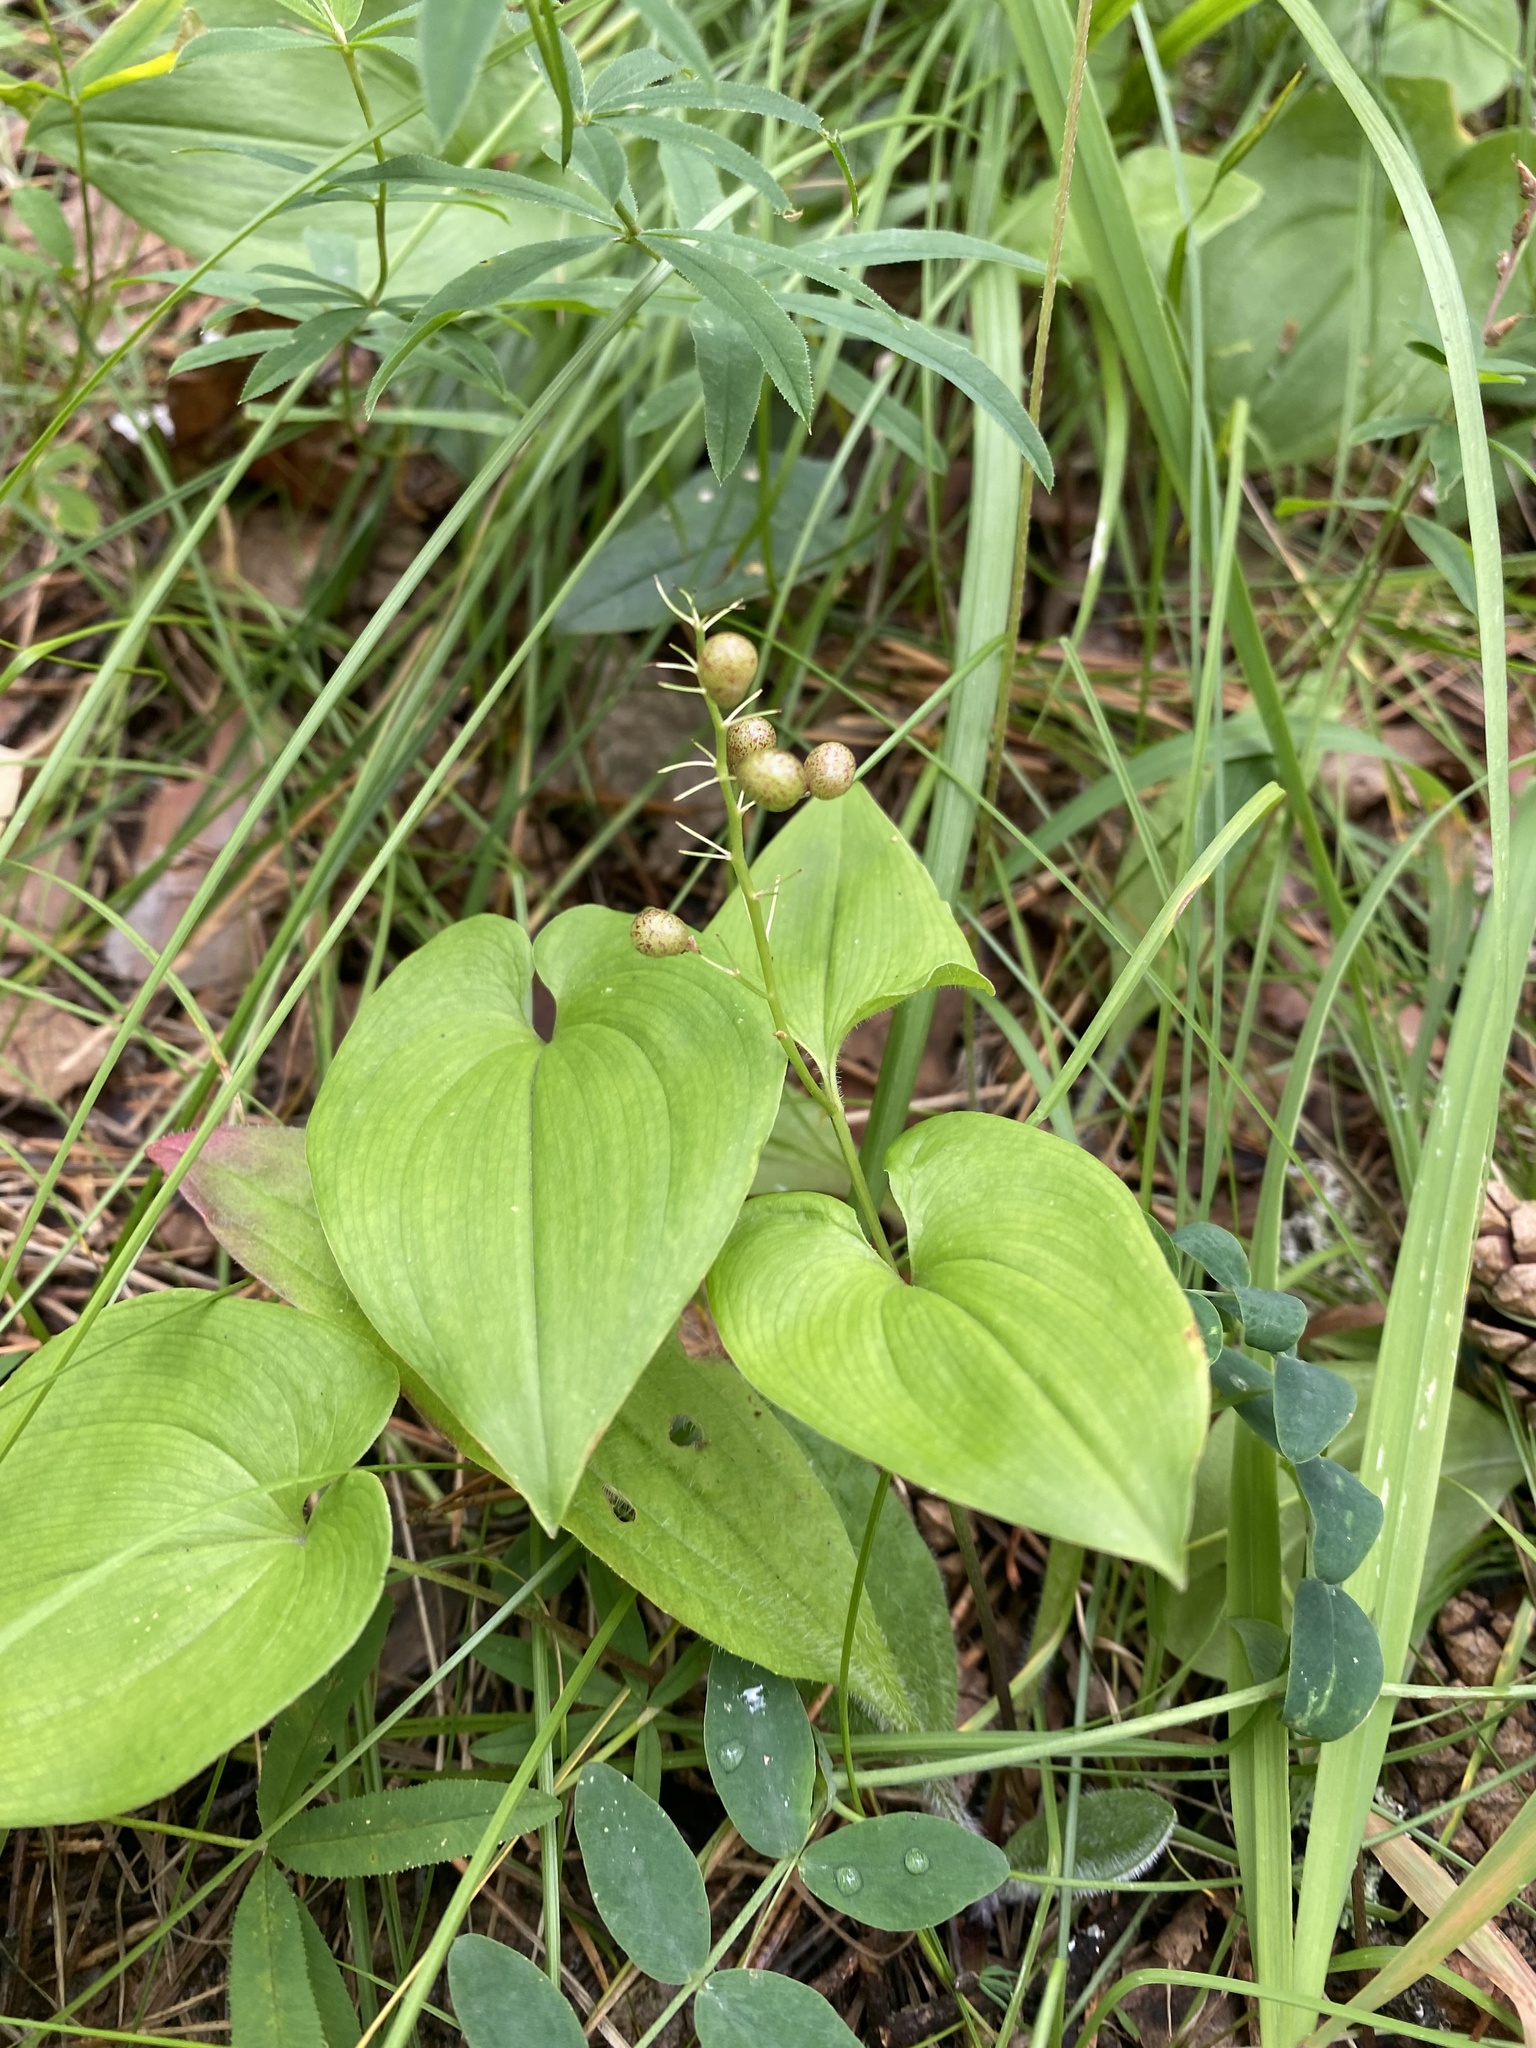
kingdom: Plantae
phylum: Tracheophyta
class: Liliopsida
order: Asparagales
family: Asparagaceae
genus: Maianthemum
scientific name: Maianthemum bifolium
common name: May lily
